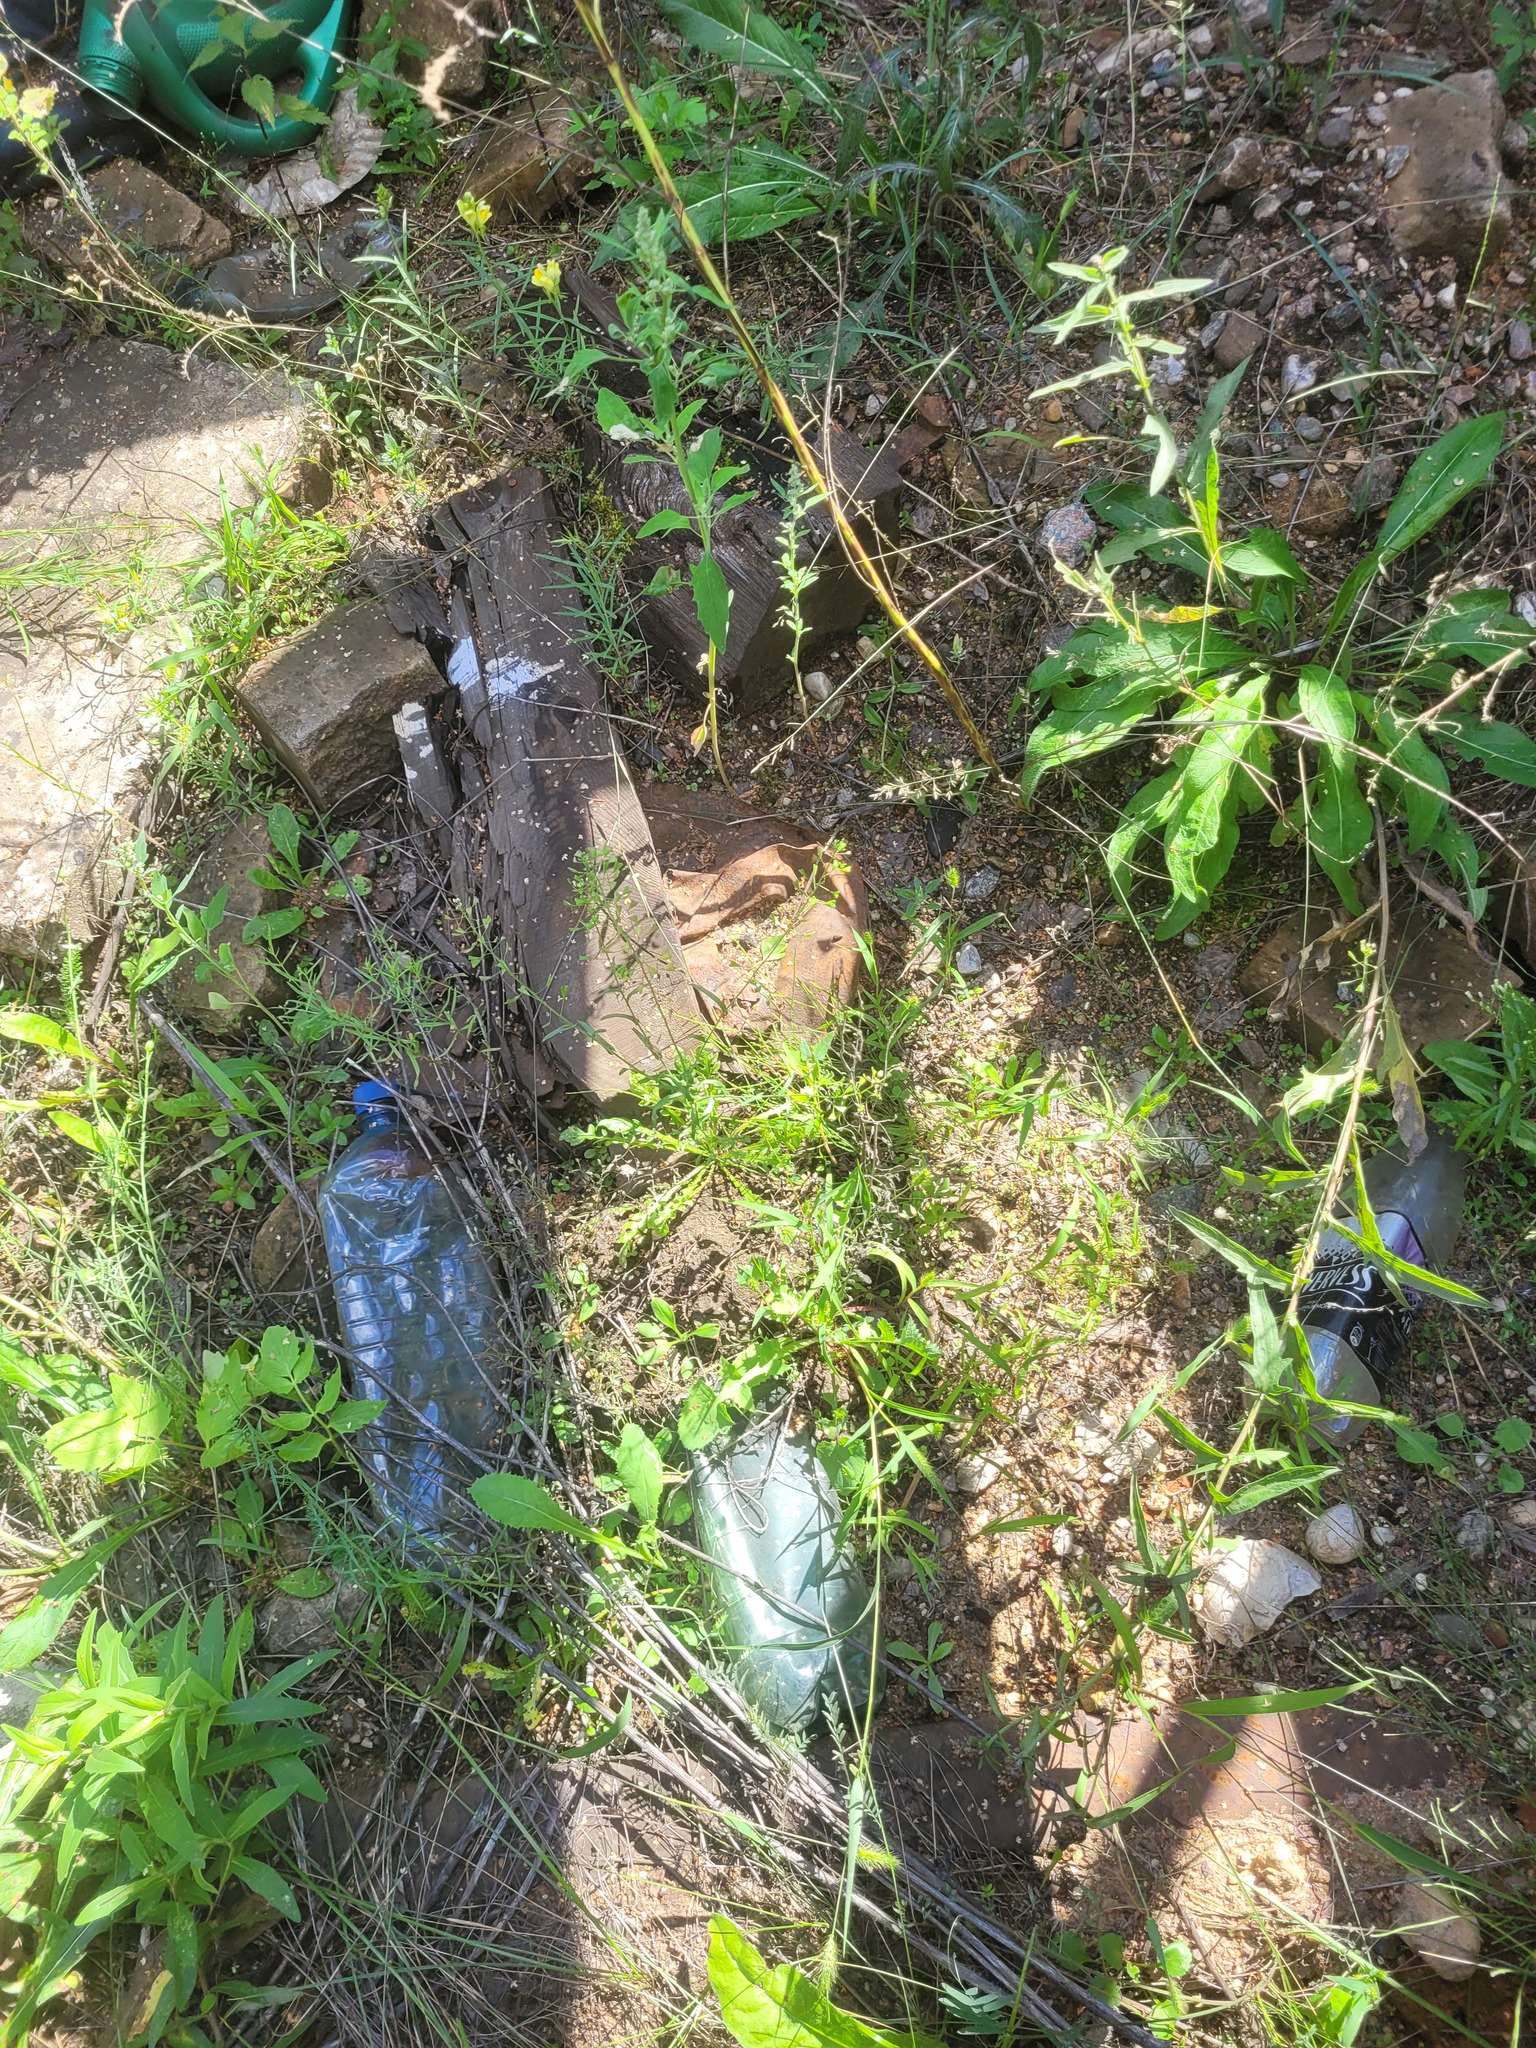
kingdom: Plantae
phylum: Tracheophyta
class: Magnoliopsida
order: Brassicales
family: Brassicaceae
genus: Capsella
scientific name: Capsella bursa-pastoris
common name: Shepherd's purse
